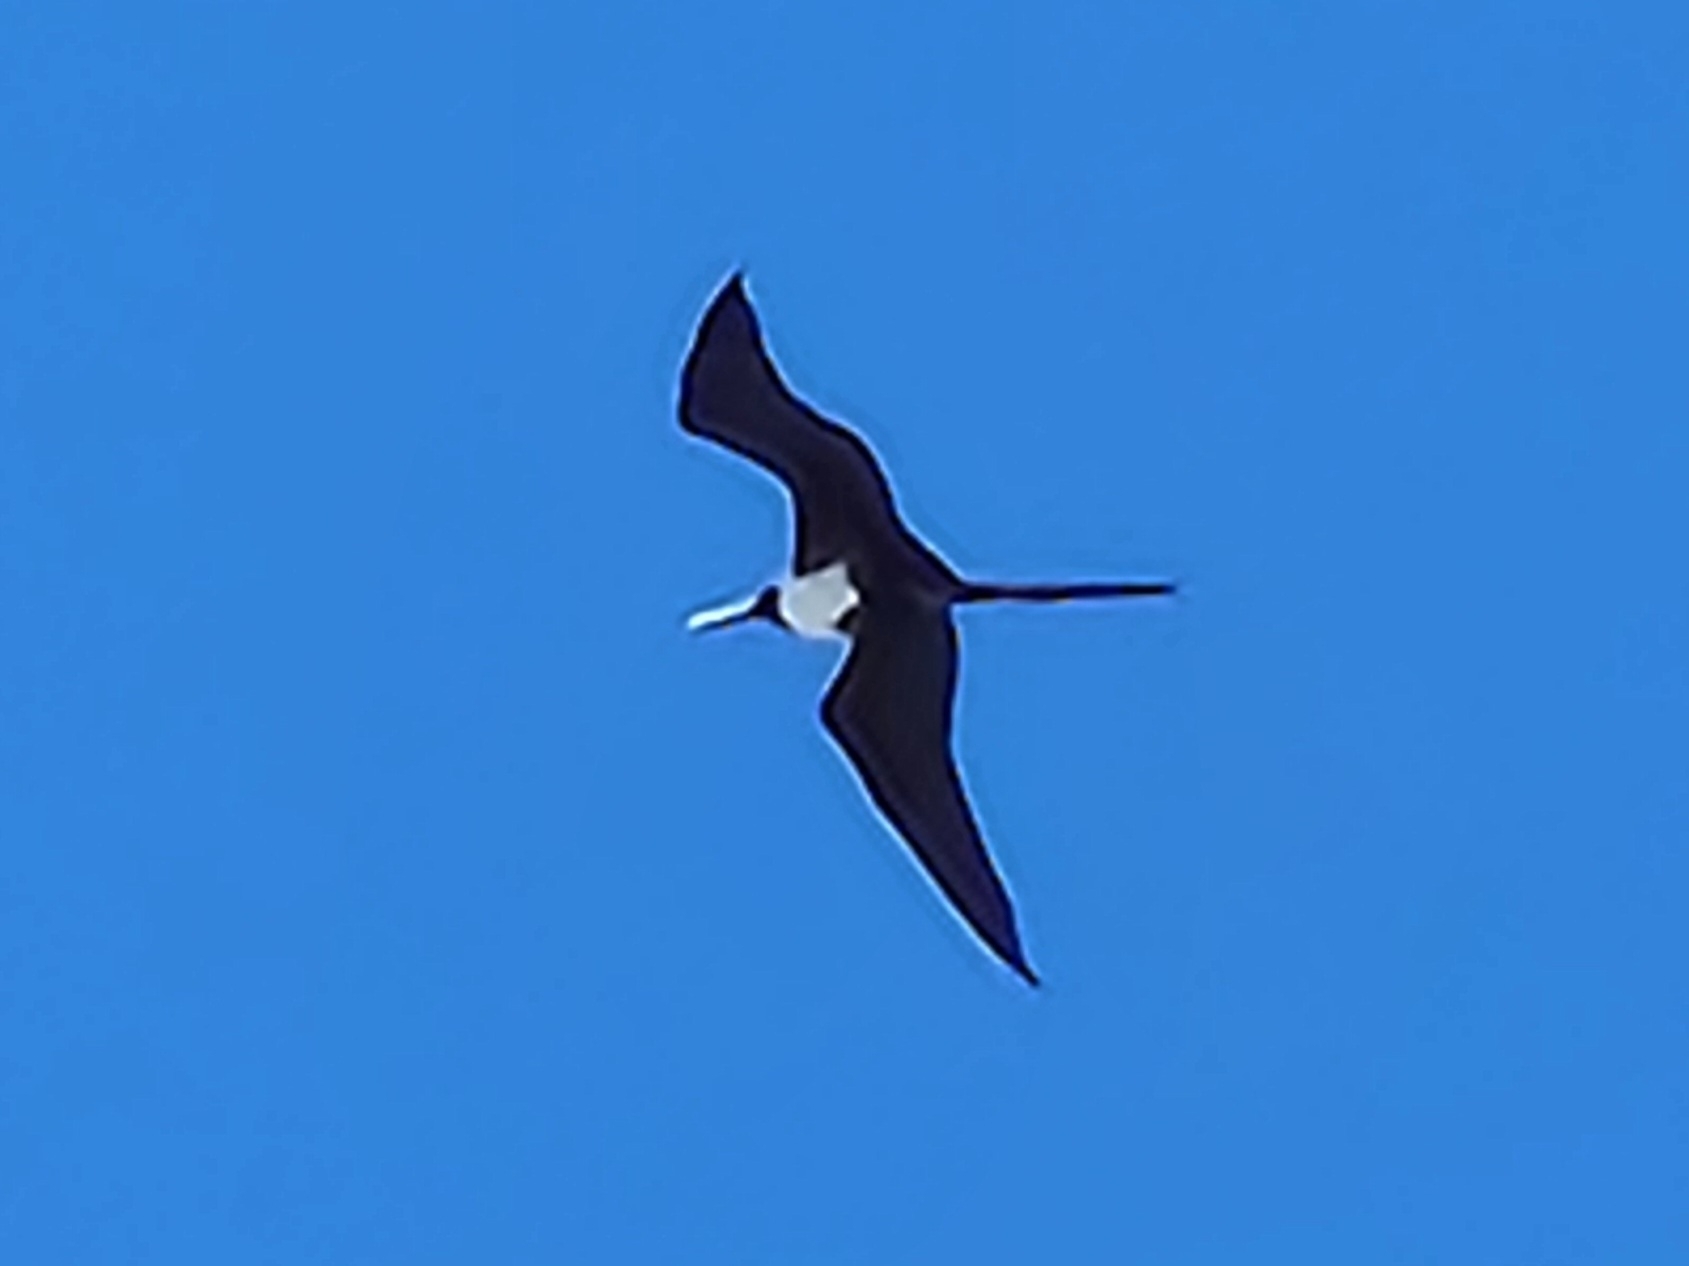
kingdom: Animalia
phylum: Chordata
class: Aves
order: Suliformes
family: Fregatidae
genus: Fregata
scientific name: Fregata magnificens
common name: Magnificent frigatebird
